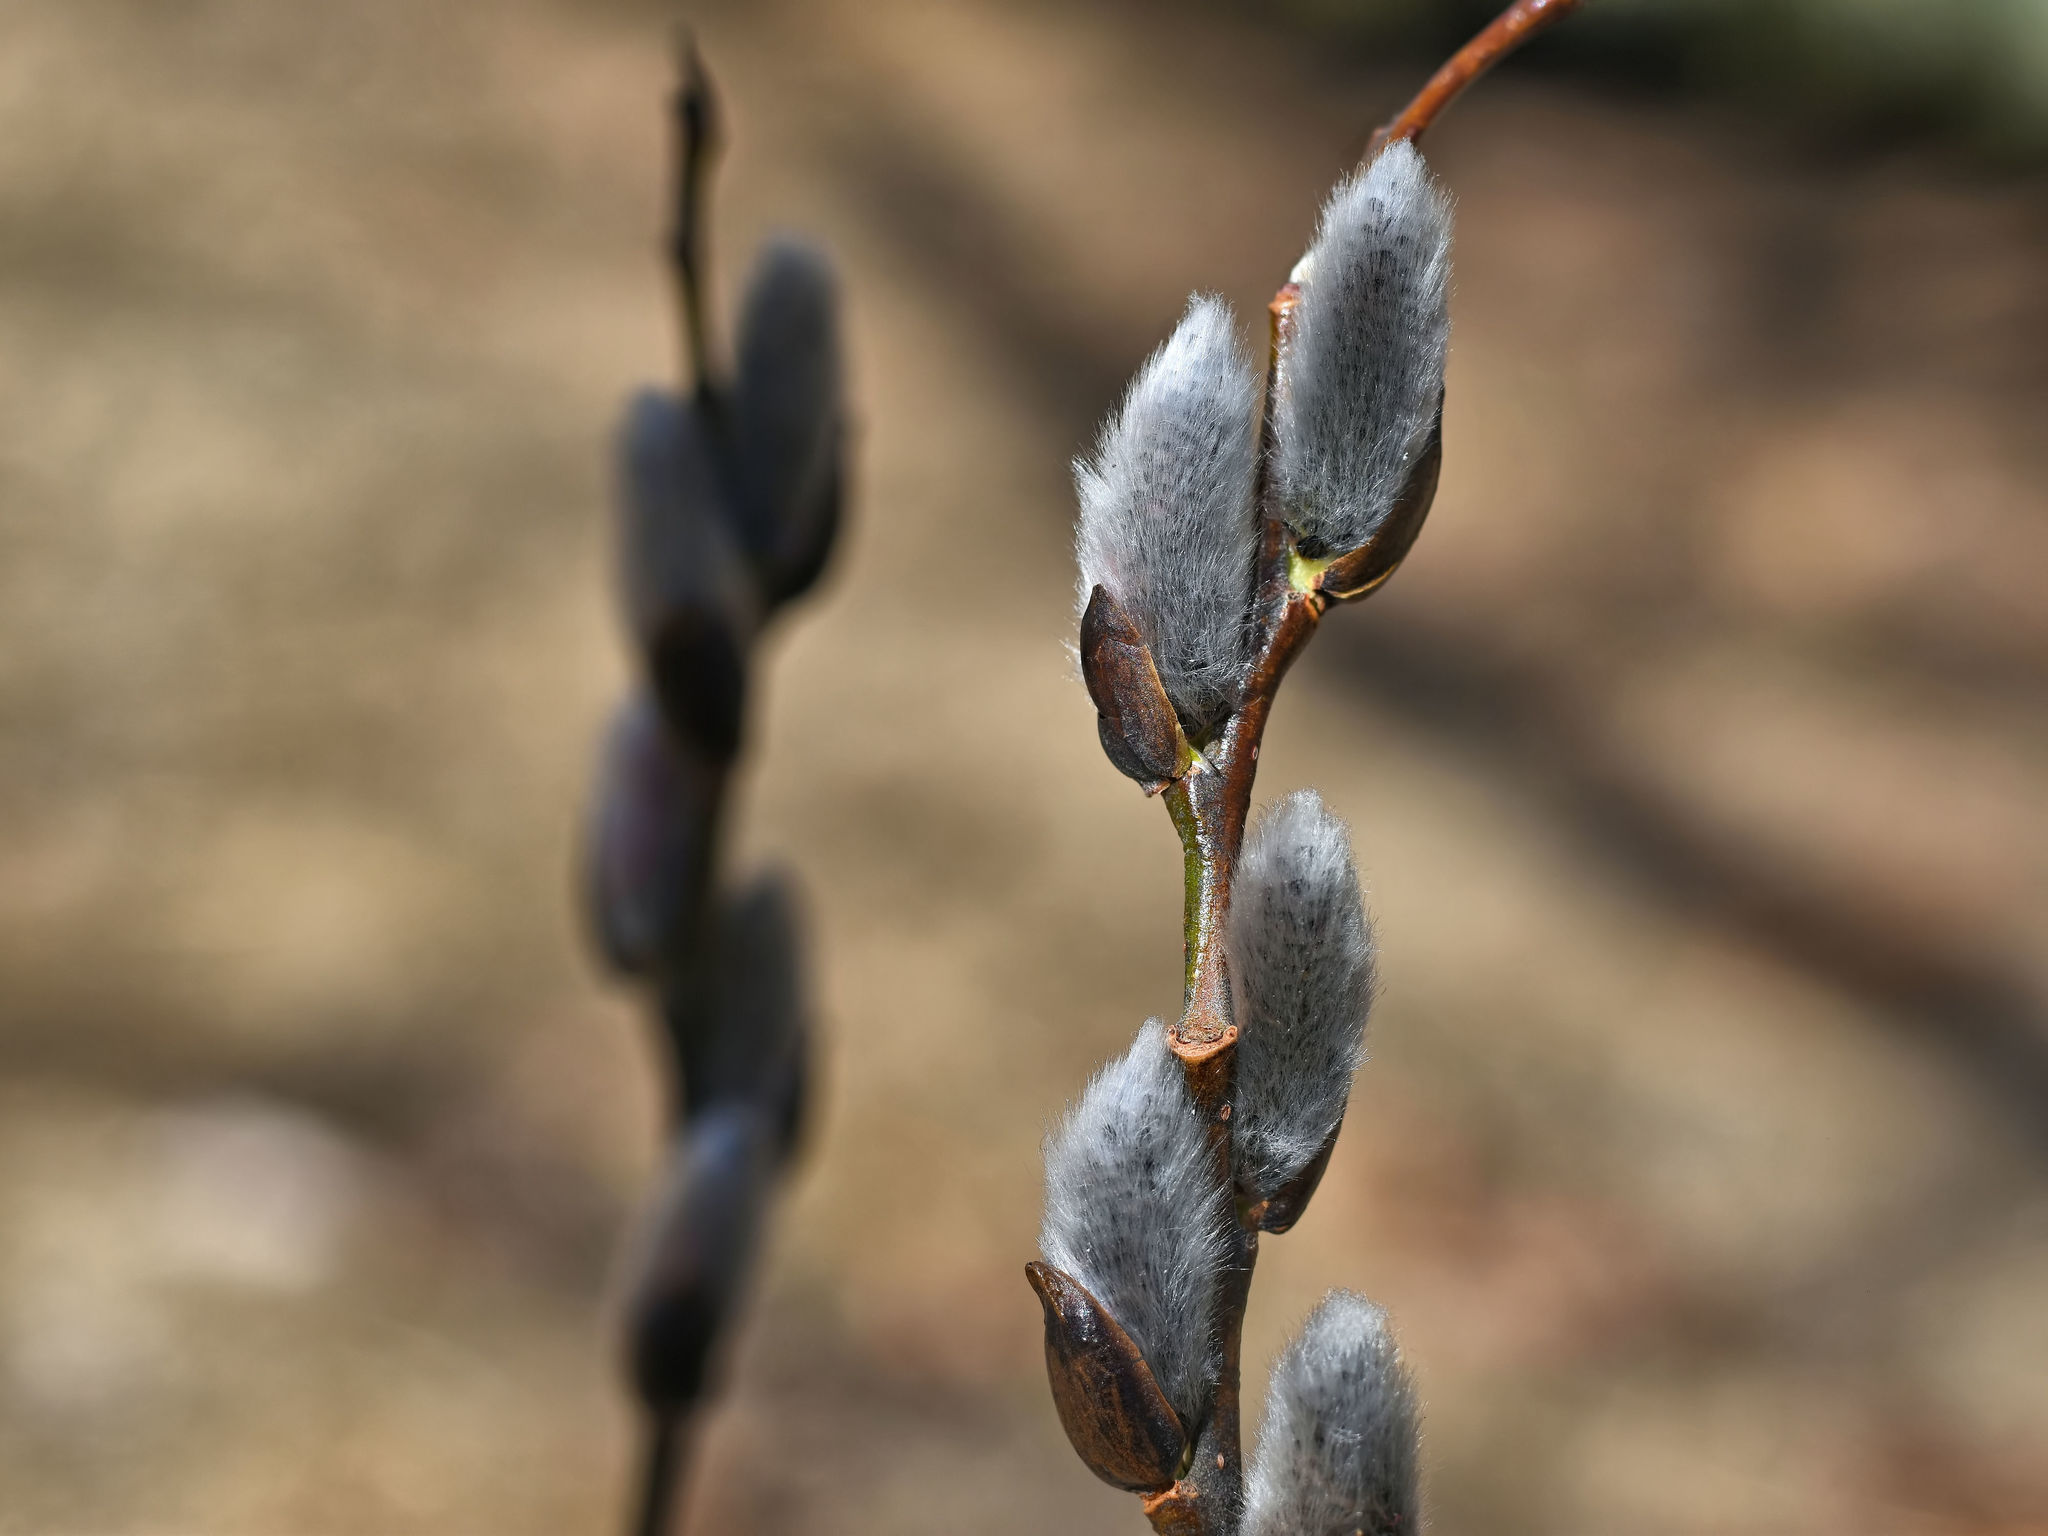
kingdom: Plantae
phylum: Tracheophyta
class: Magnoliopsida
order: Malpighiales
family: Salicaceae
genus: Salix
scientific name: Salix discolor
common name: Glaucous willow
